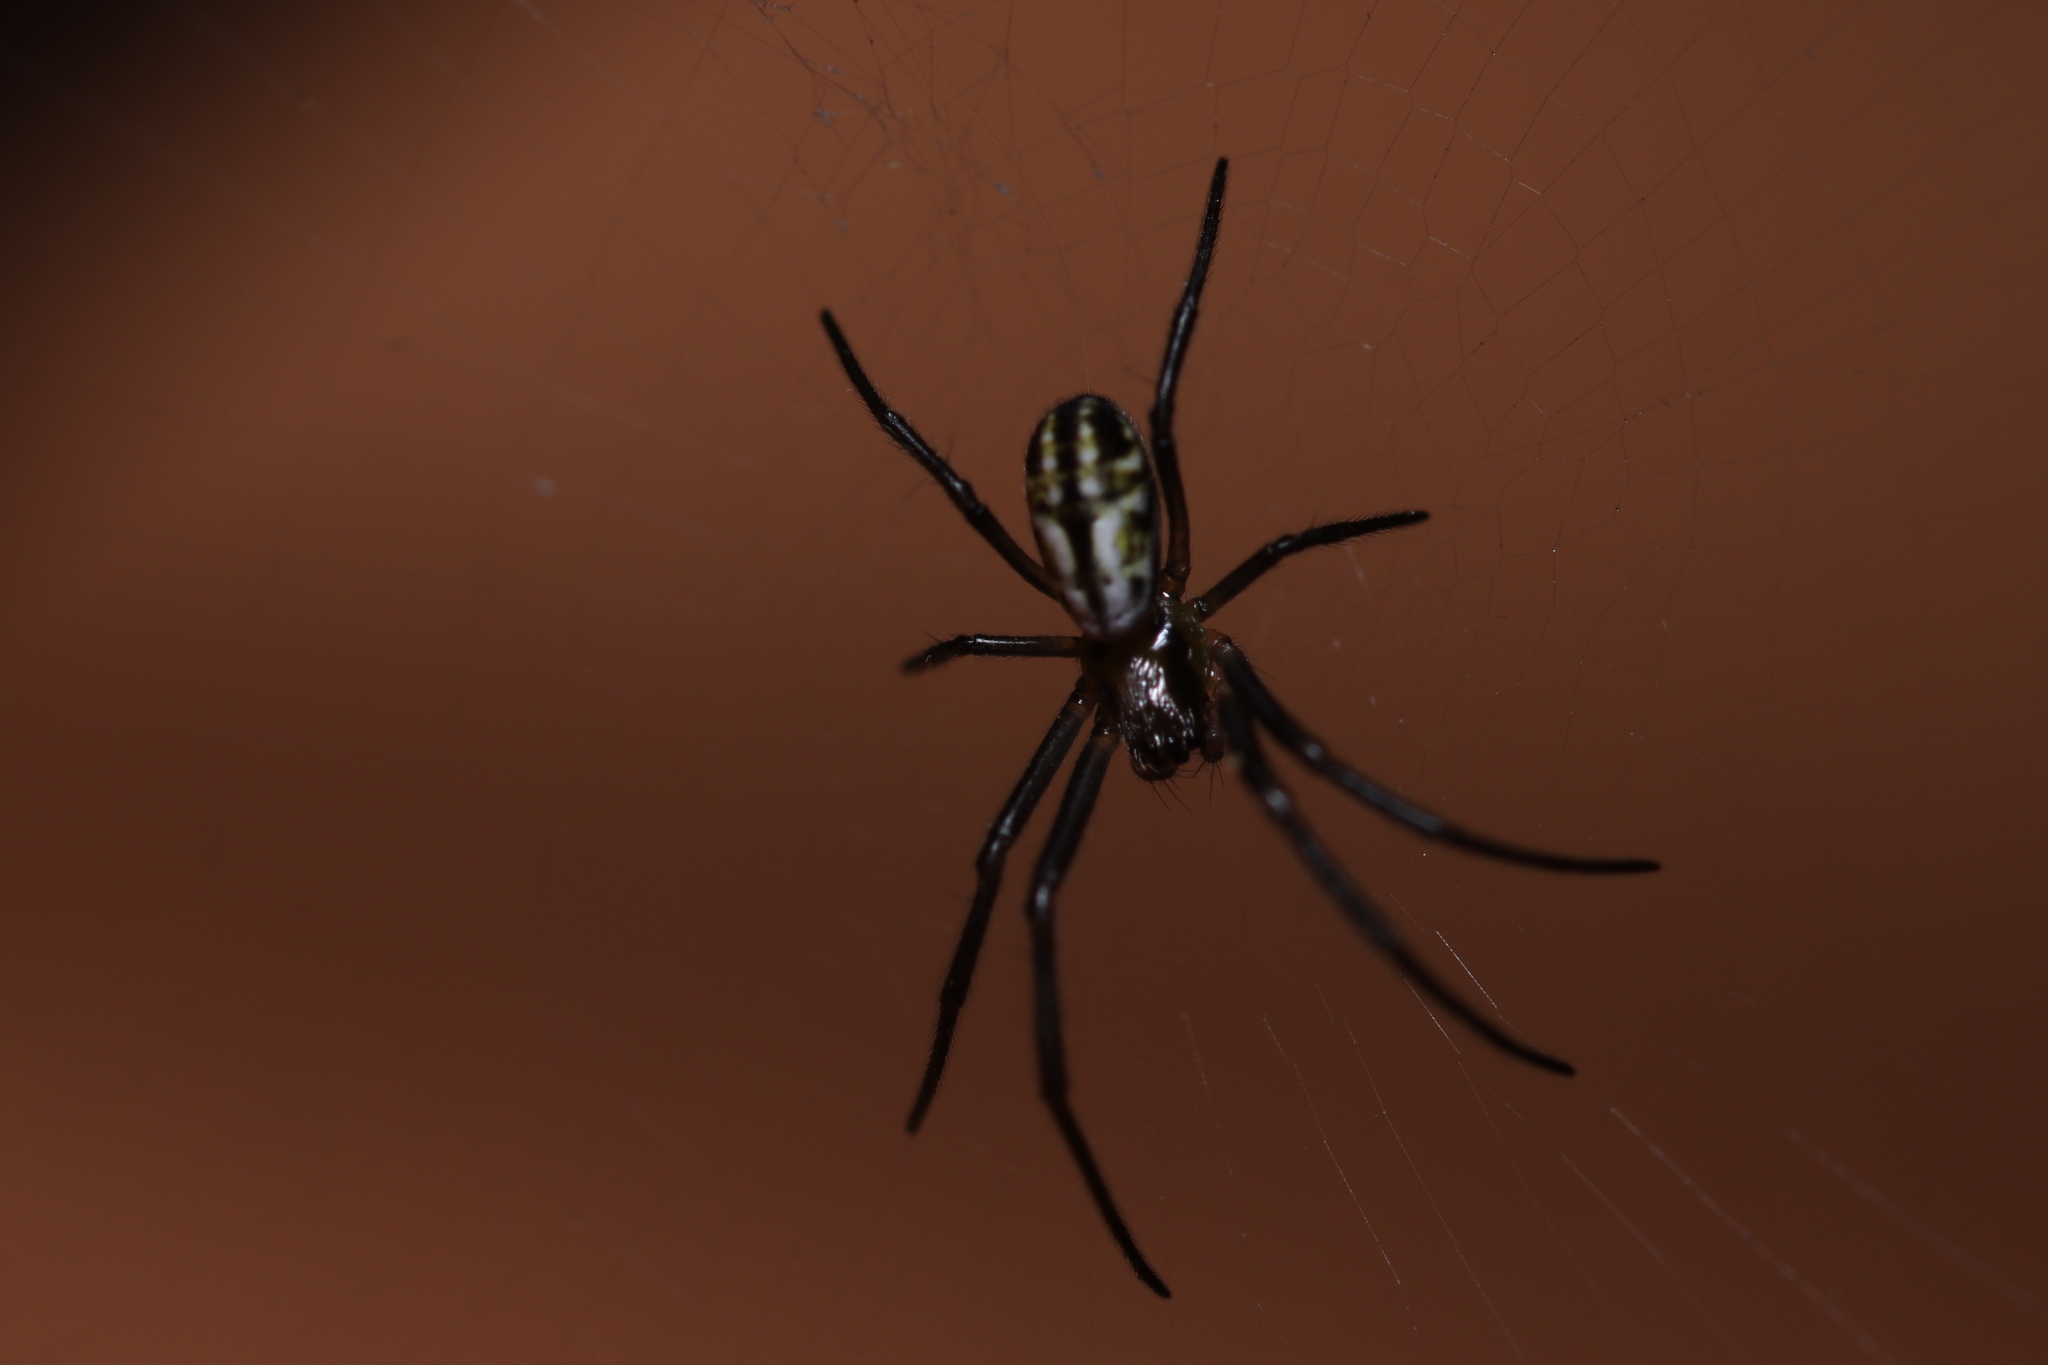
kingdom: Animalia
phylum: Arthropoda
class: Arachnida
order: Araneae
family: Araneidae
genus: Trichonephila
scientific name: Trichonephila clavipes
